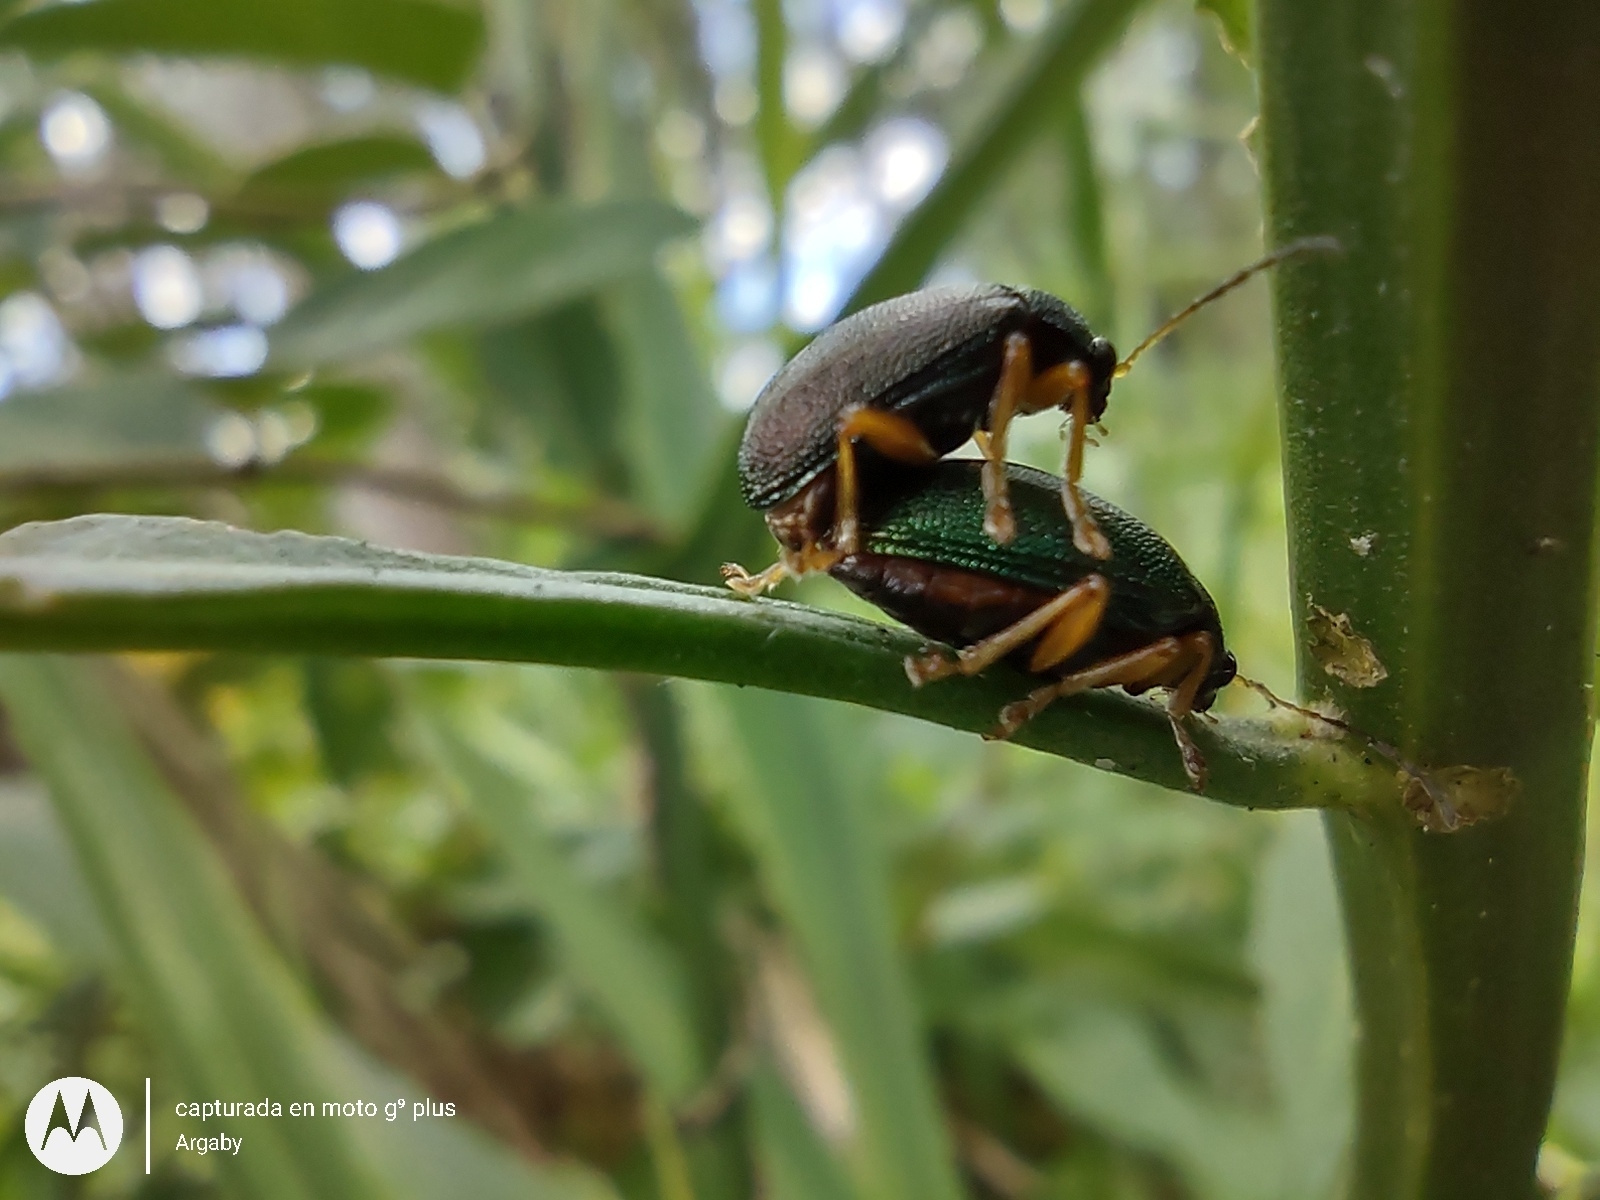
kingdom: Animalia
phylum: Arthropoda
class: Insecta
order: Coleoptera
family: Chrysomelidae
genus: Colaspis
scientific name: Colaspis
